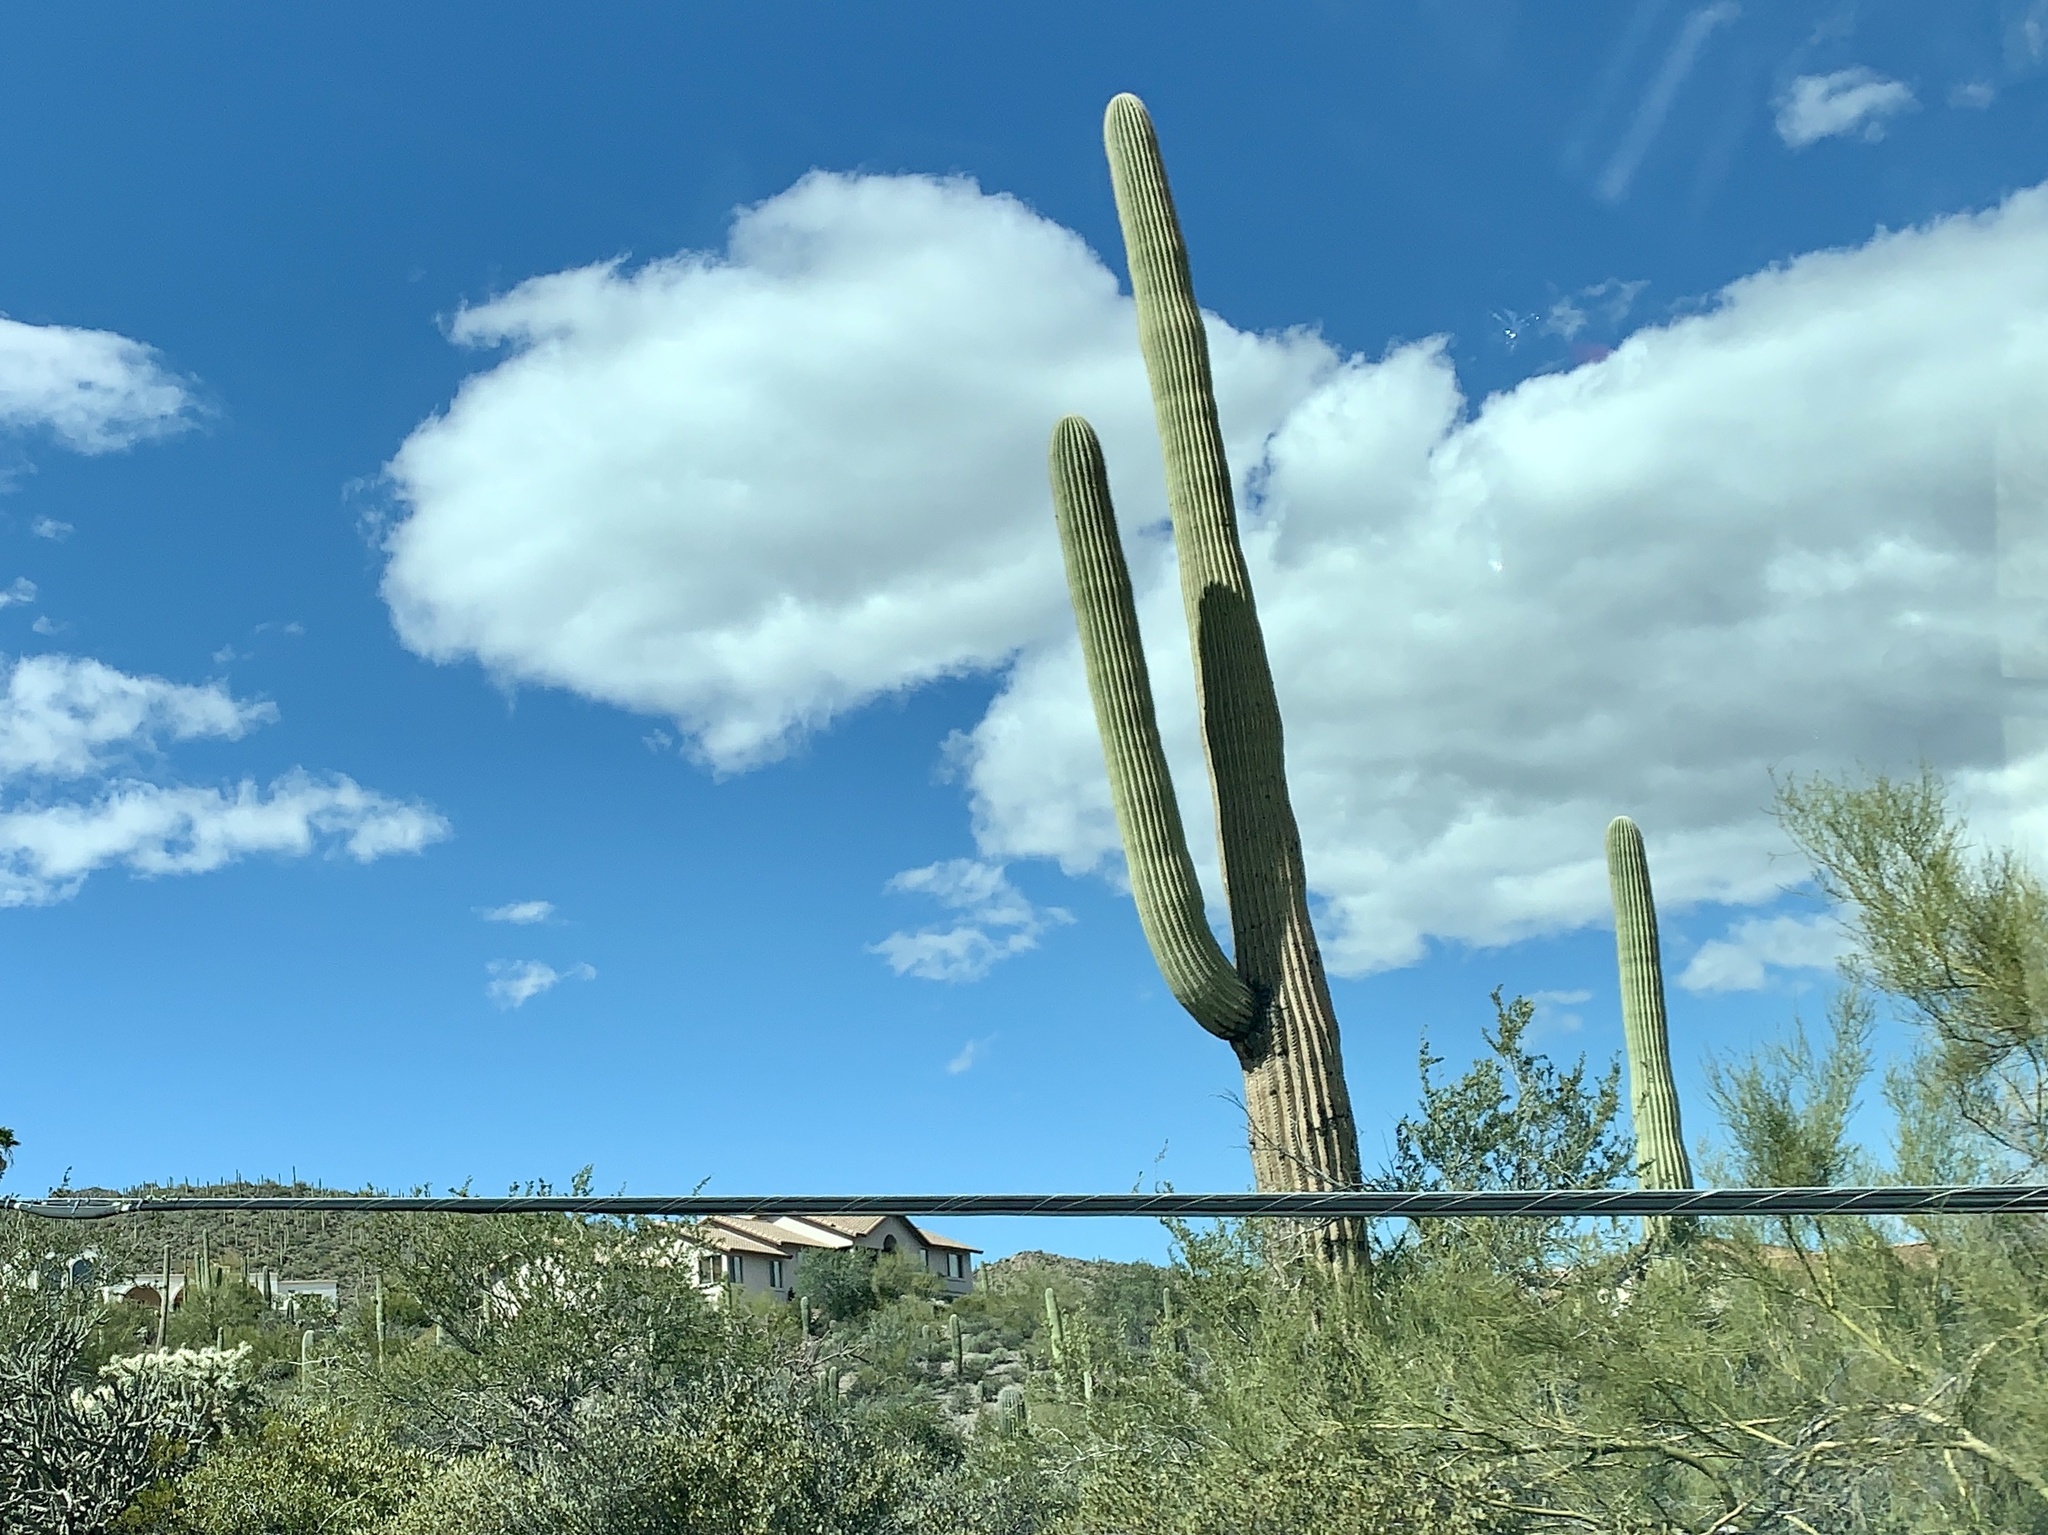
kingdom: Plantae
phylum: Tracheophyta
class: Magnoliopsida
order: Caryophyllales
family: Cactaceae
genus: Carnegiea
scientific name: Carnegiea gigantea
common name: Saguaro
